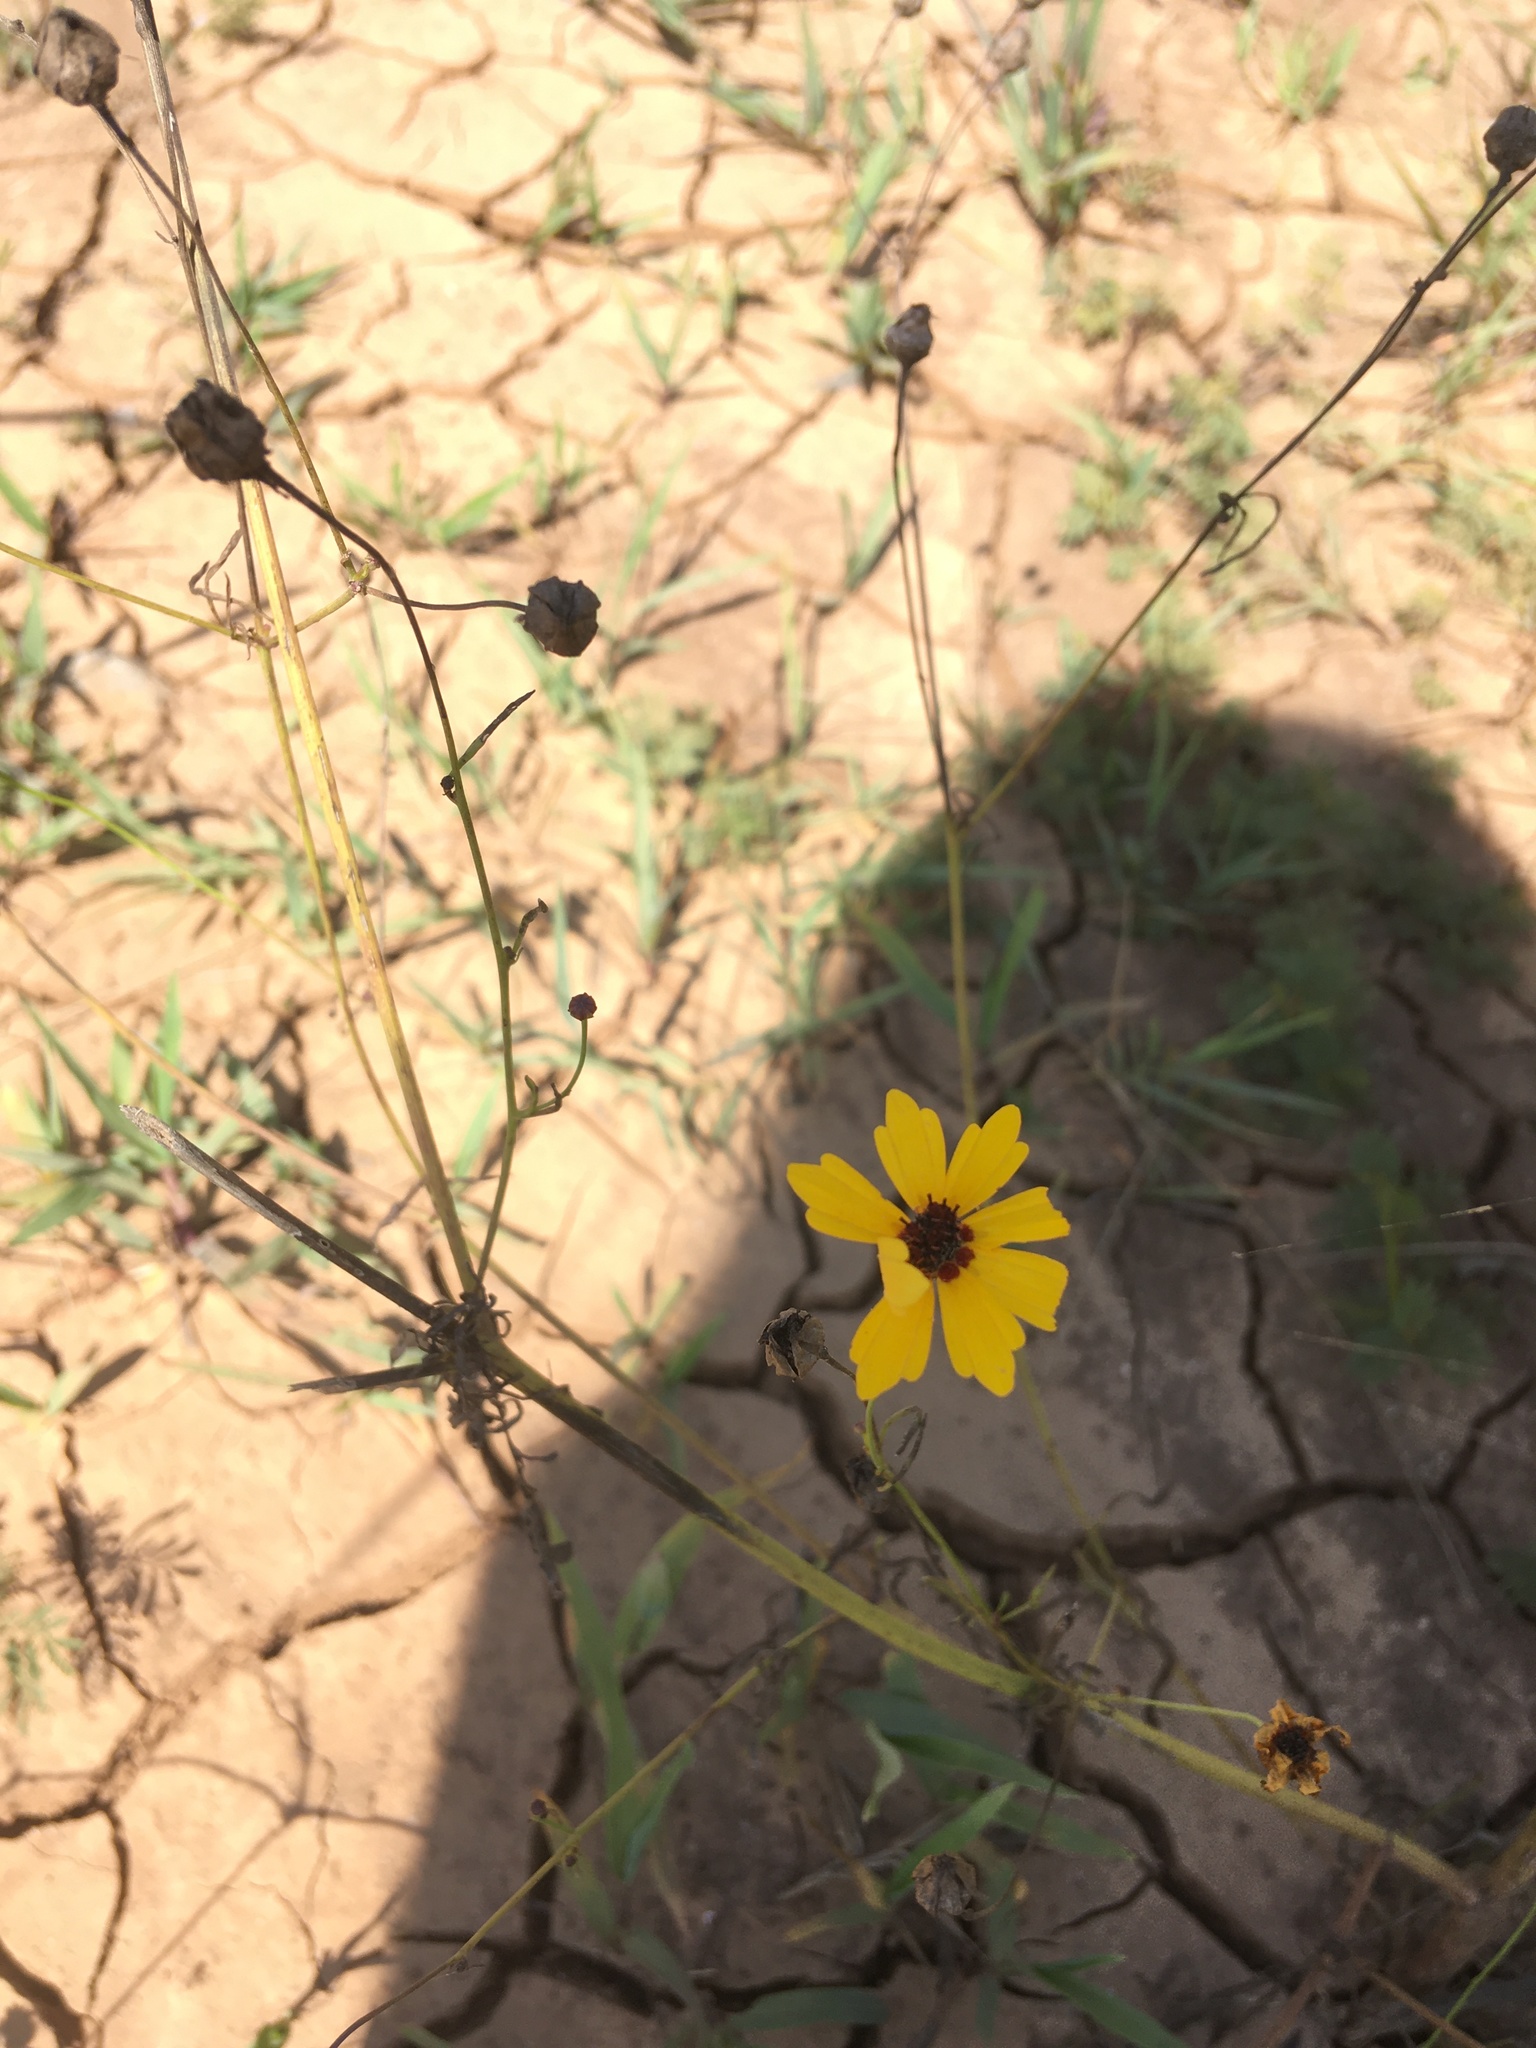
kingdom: Plantae
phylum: Tracheophyta
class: Magnoliopsida
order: Asterales
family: Asteraceae
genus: Coreopsis
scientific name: Coreopsis tinctoria
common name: Garden tickseed
